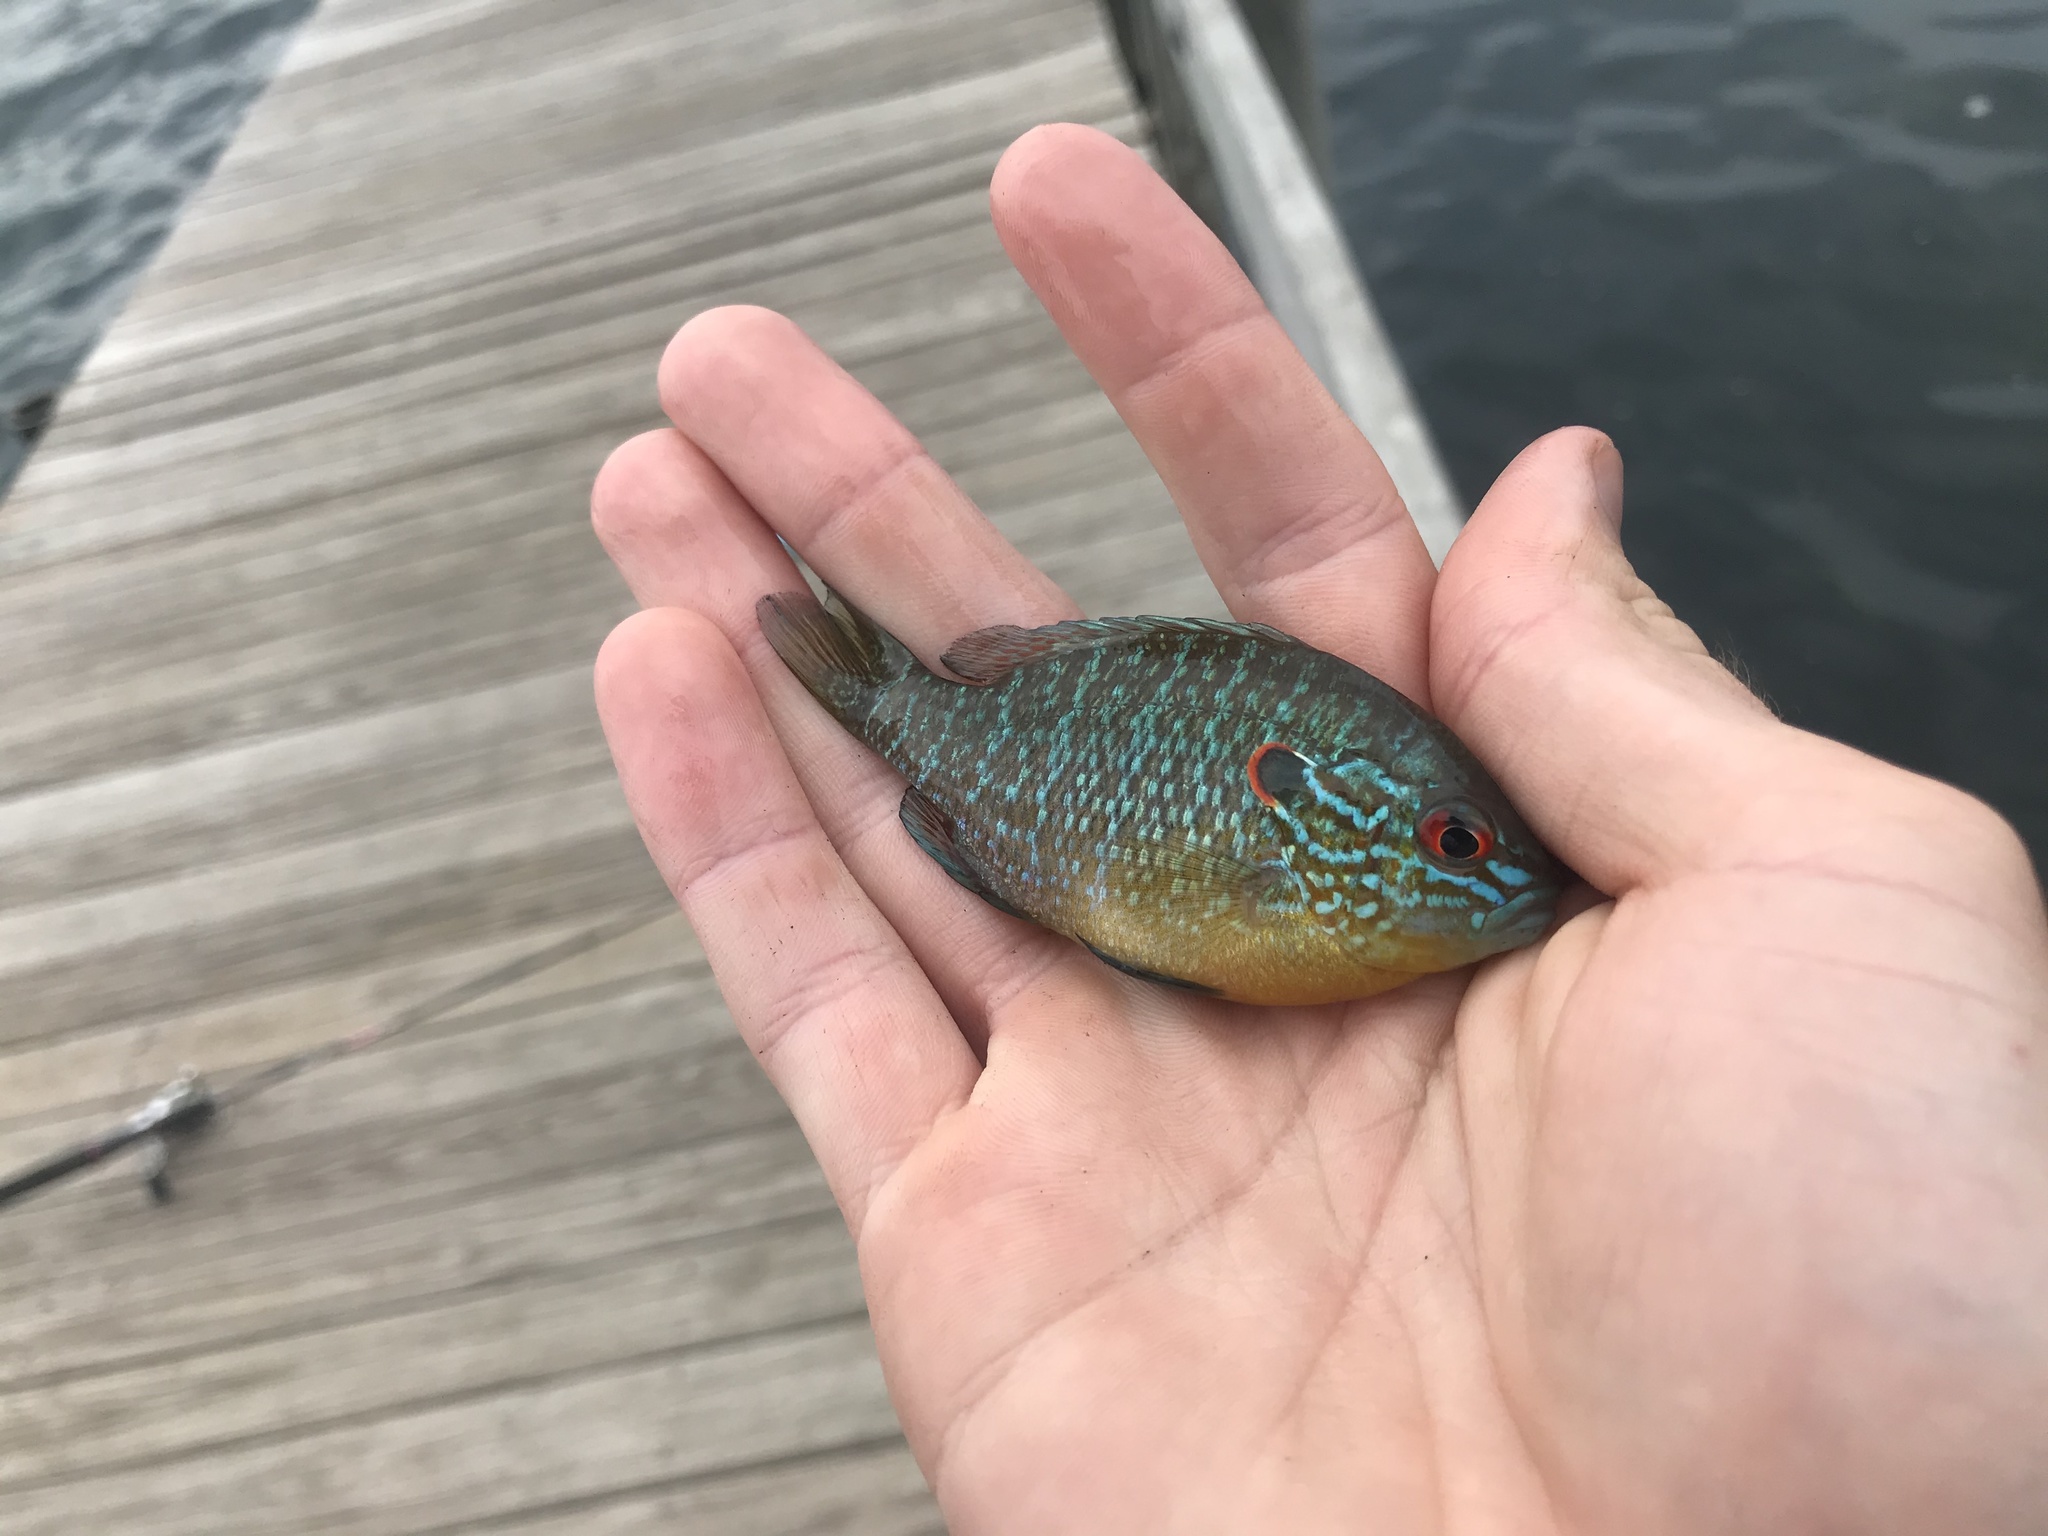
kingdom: Animalia
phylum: Chordata
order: Perciformes
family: Centrarchidae
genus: Lepomis
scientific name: Lepomis peltastes
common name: Northern sunfish
